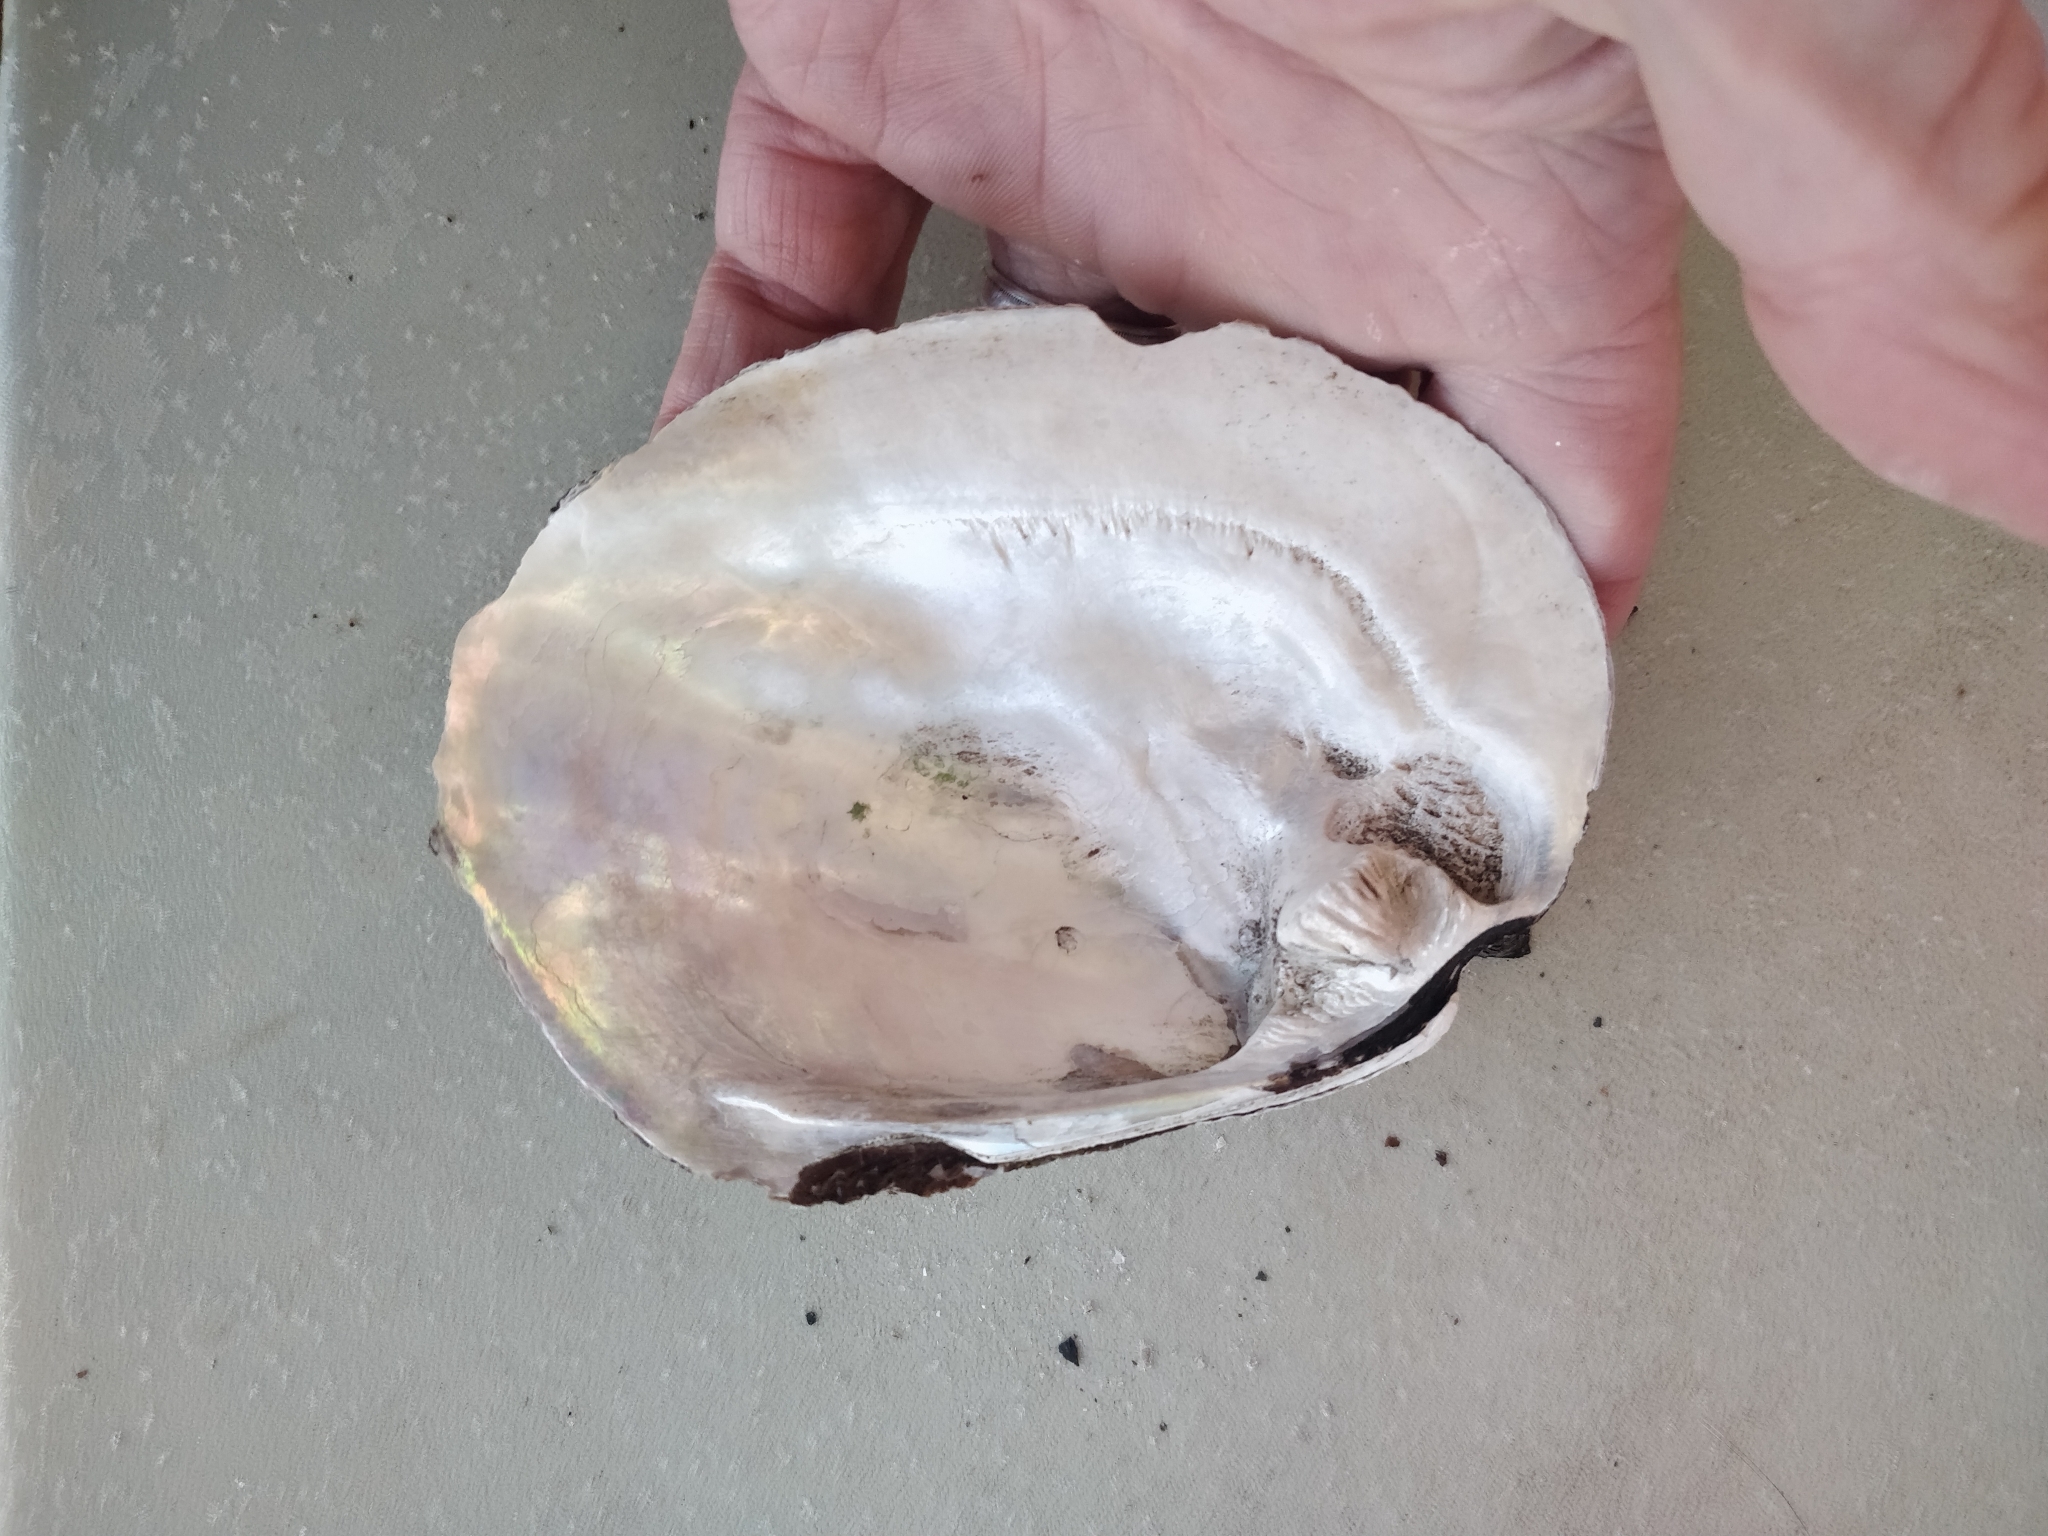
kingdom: Animalia
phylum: Mollusca
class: Bivalvia
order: Unionida
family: Unionidae
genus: Amblema
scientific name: Amblema plicata
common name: Threeridge
